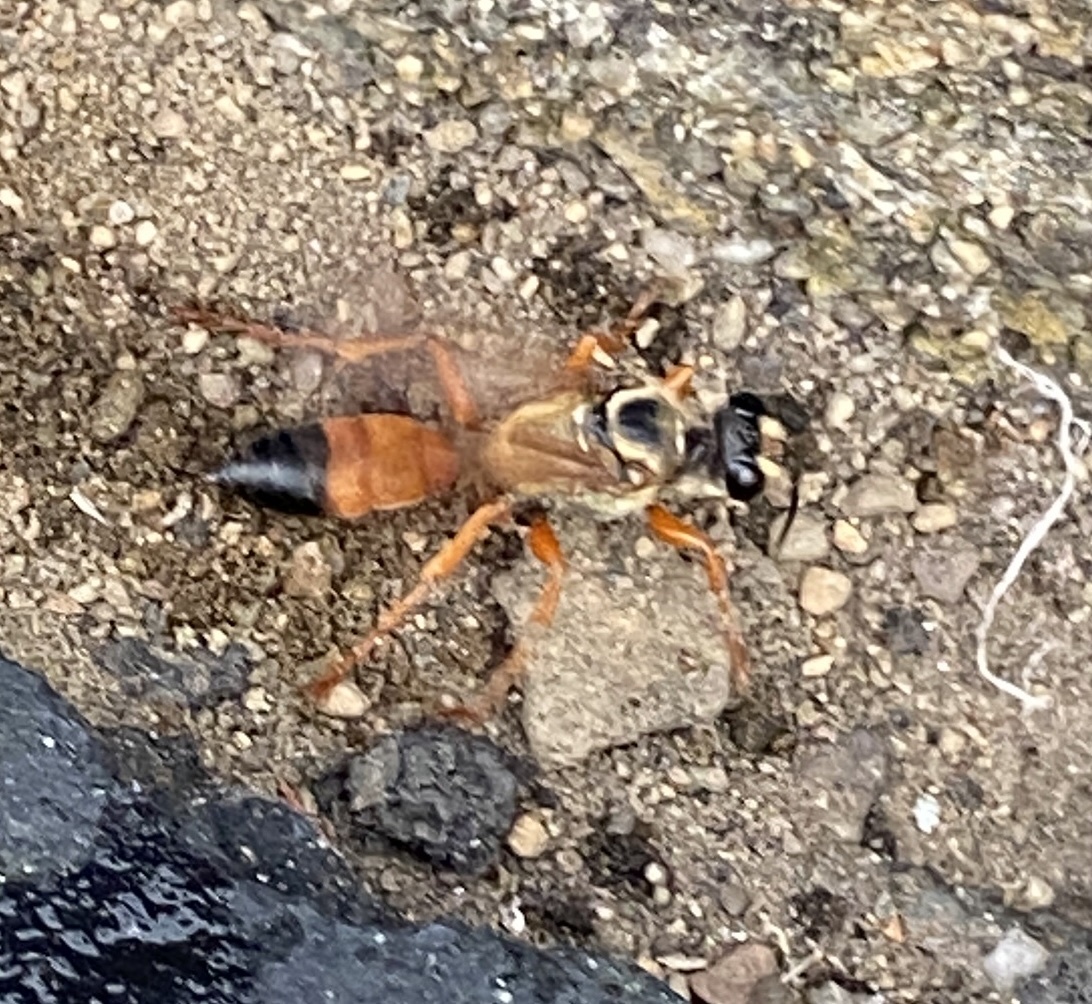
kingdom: Animalia
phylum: Arthropoda
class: Insecta
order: Hymenoptera
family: Sphecidae
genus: Sphex
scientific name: Sphex ichneumoneus
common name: Great golden digger wasp
